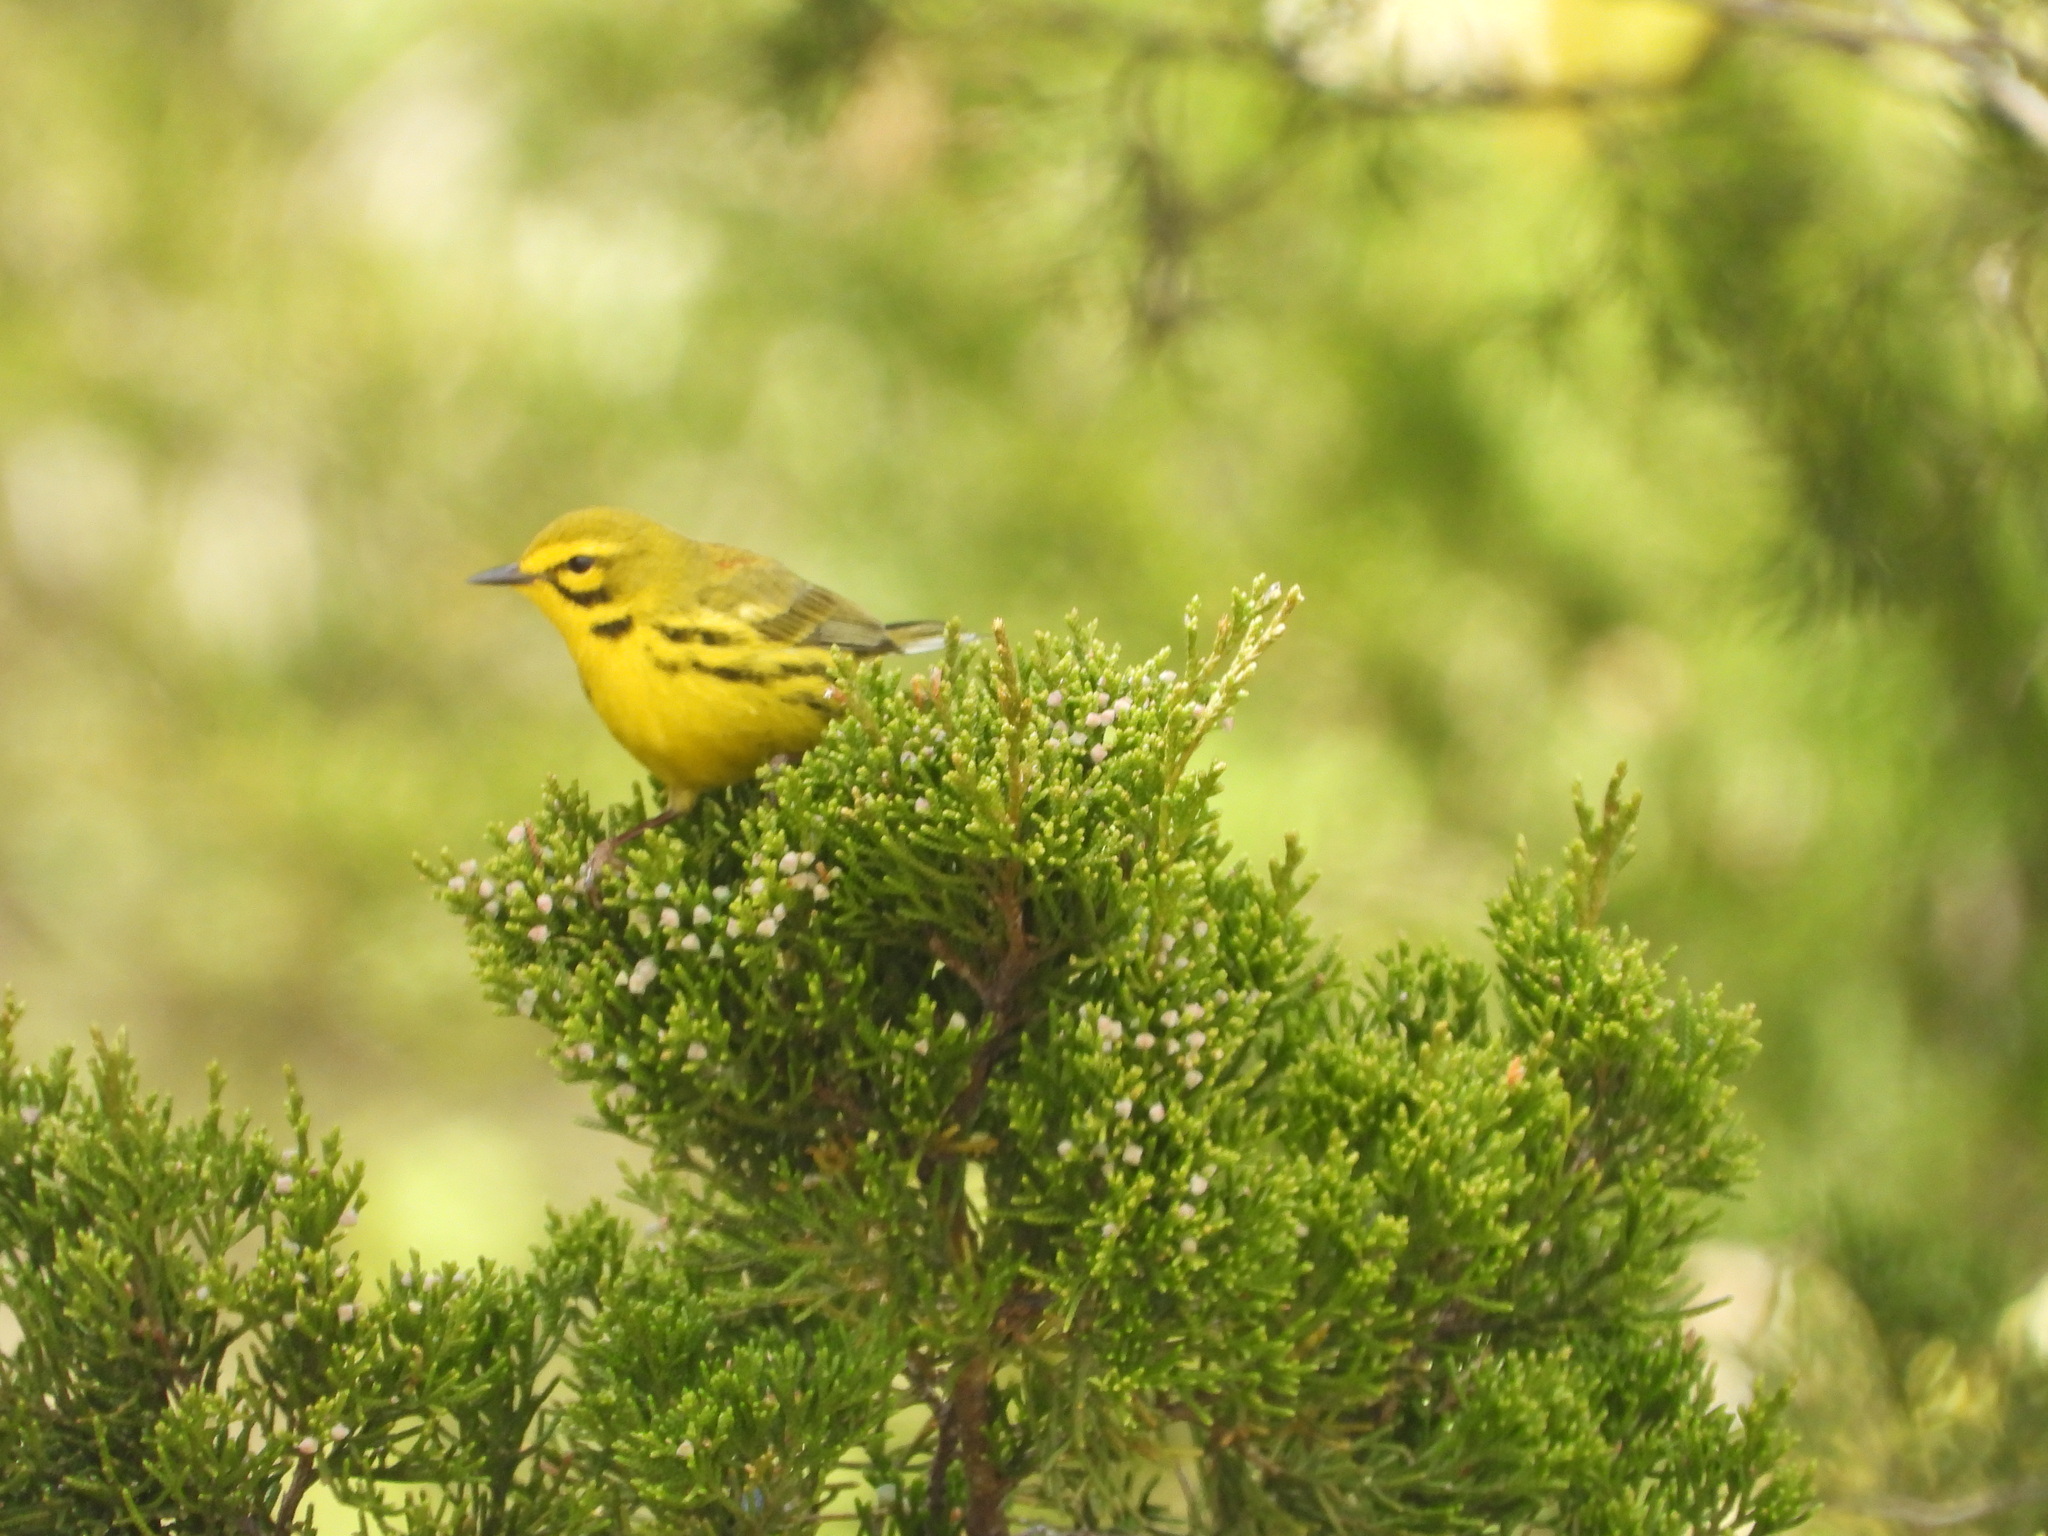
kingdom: Animalia
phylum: Chordata
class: Aves
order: Passeriformes
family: Parulidae
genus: Setophaga
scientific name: Setophaga discolor
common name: Prairie warbler
